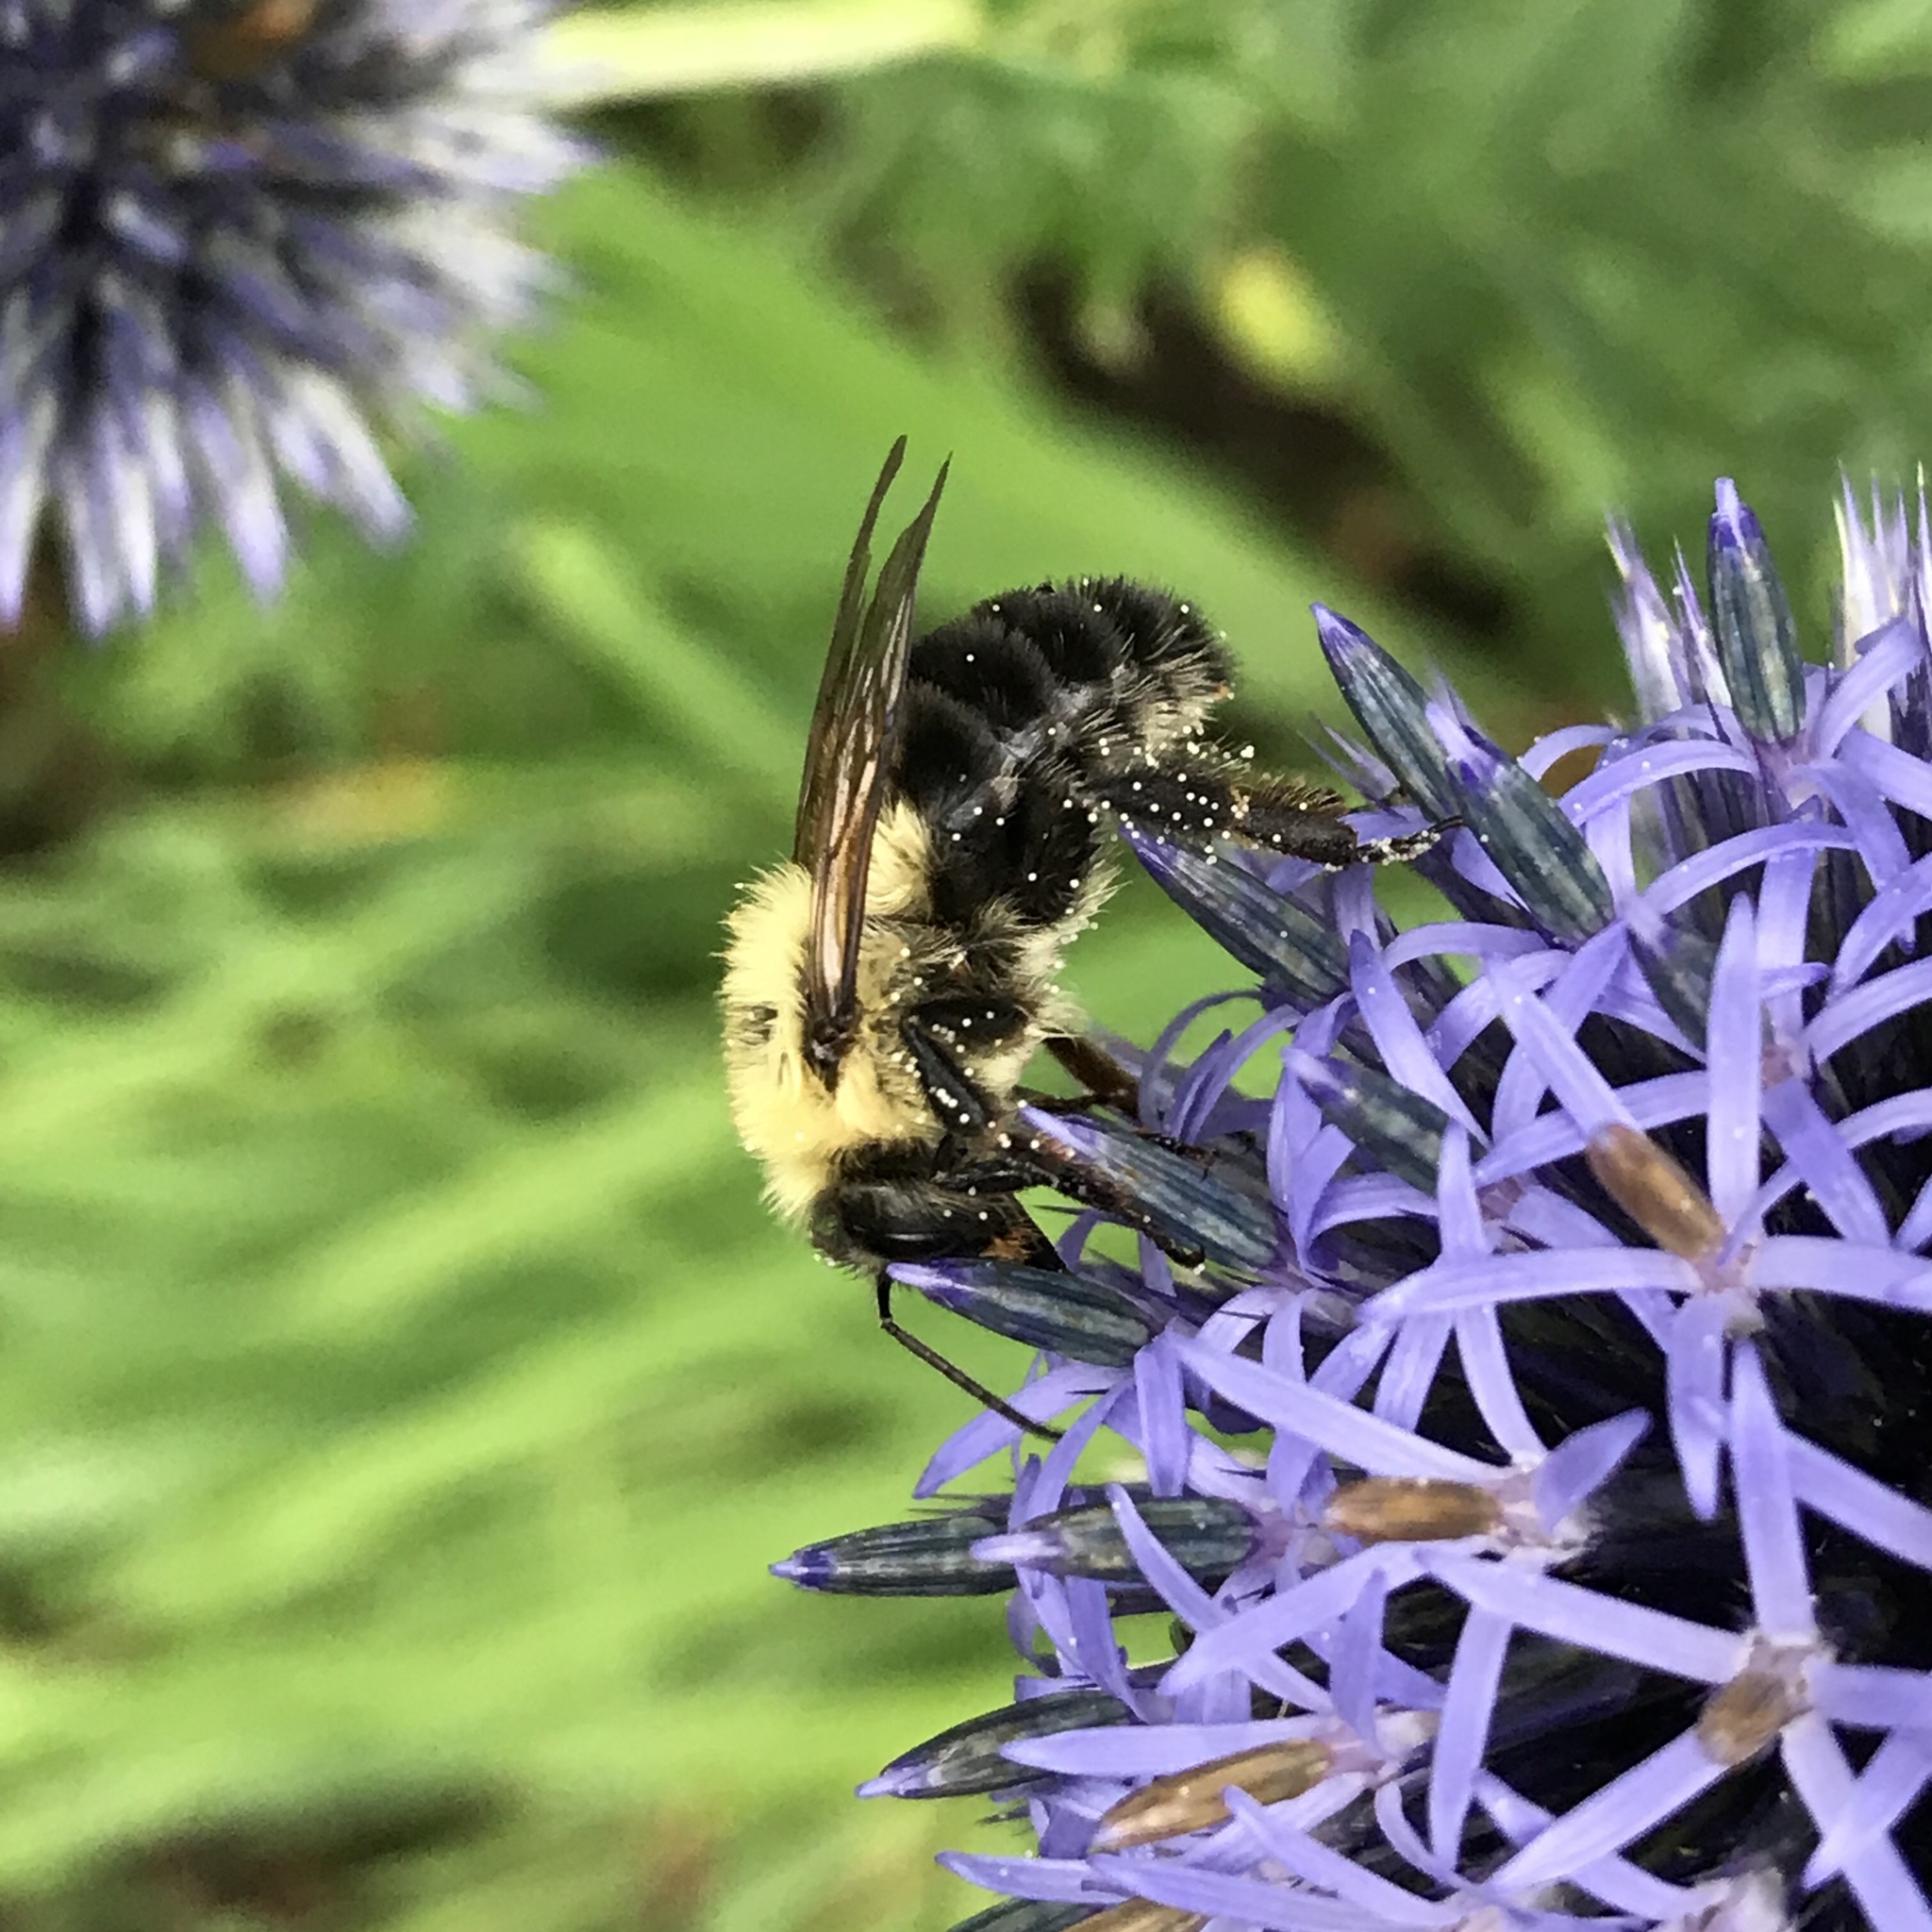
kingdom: Animalia
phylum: Arthropoda
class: Insecta
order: Hymenoptera
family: Apidae
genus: Bombus
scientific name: Bombus bimaculatus
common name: Two-spotted bumble bee
